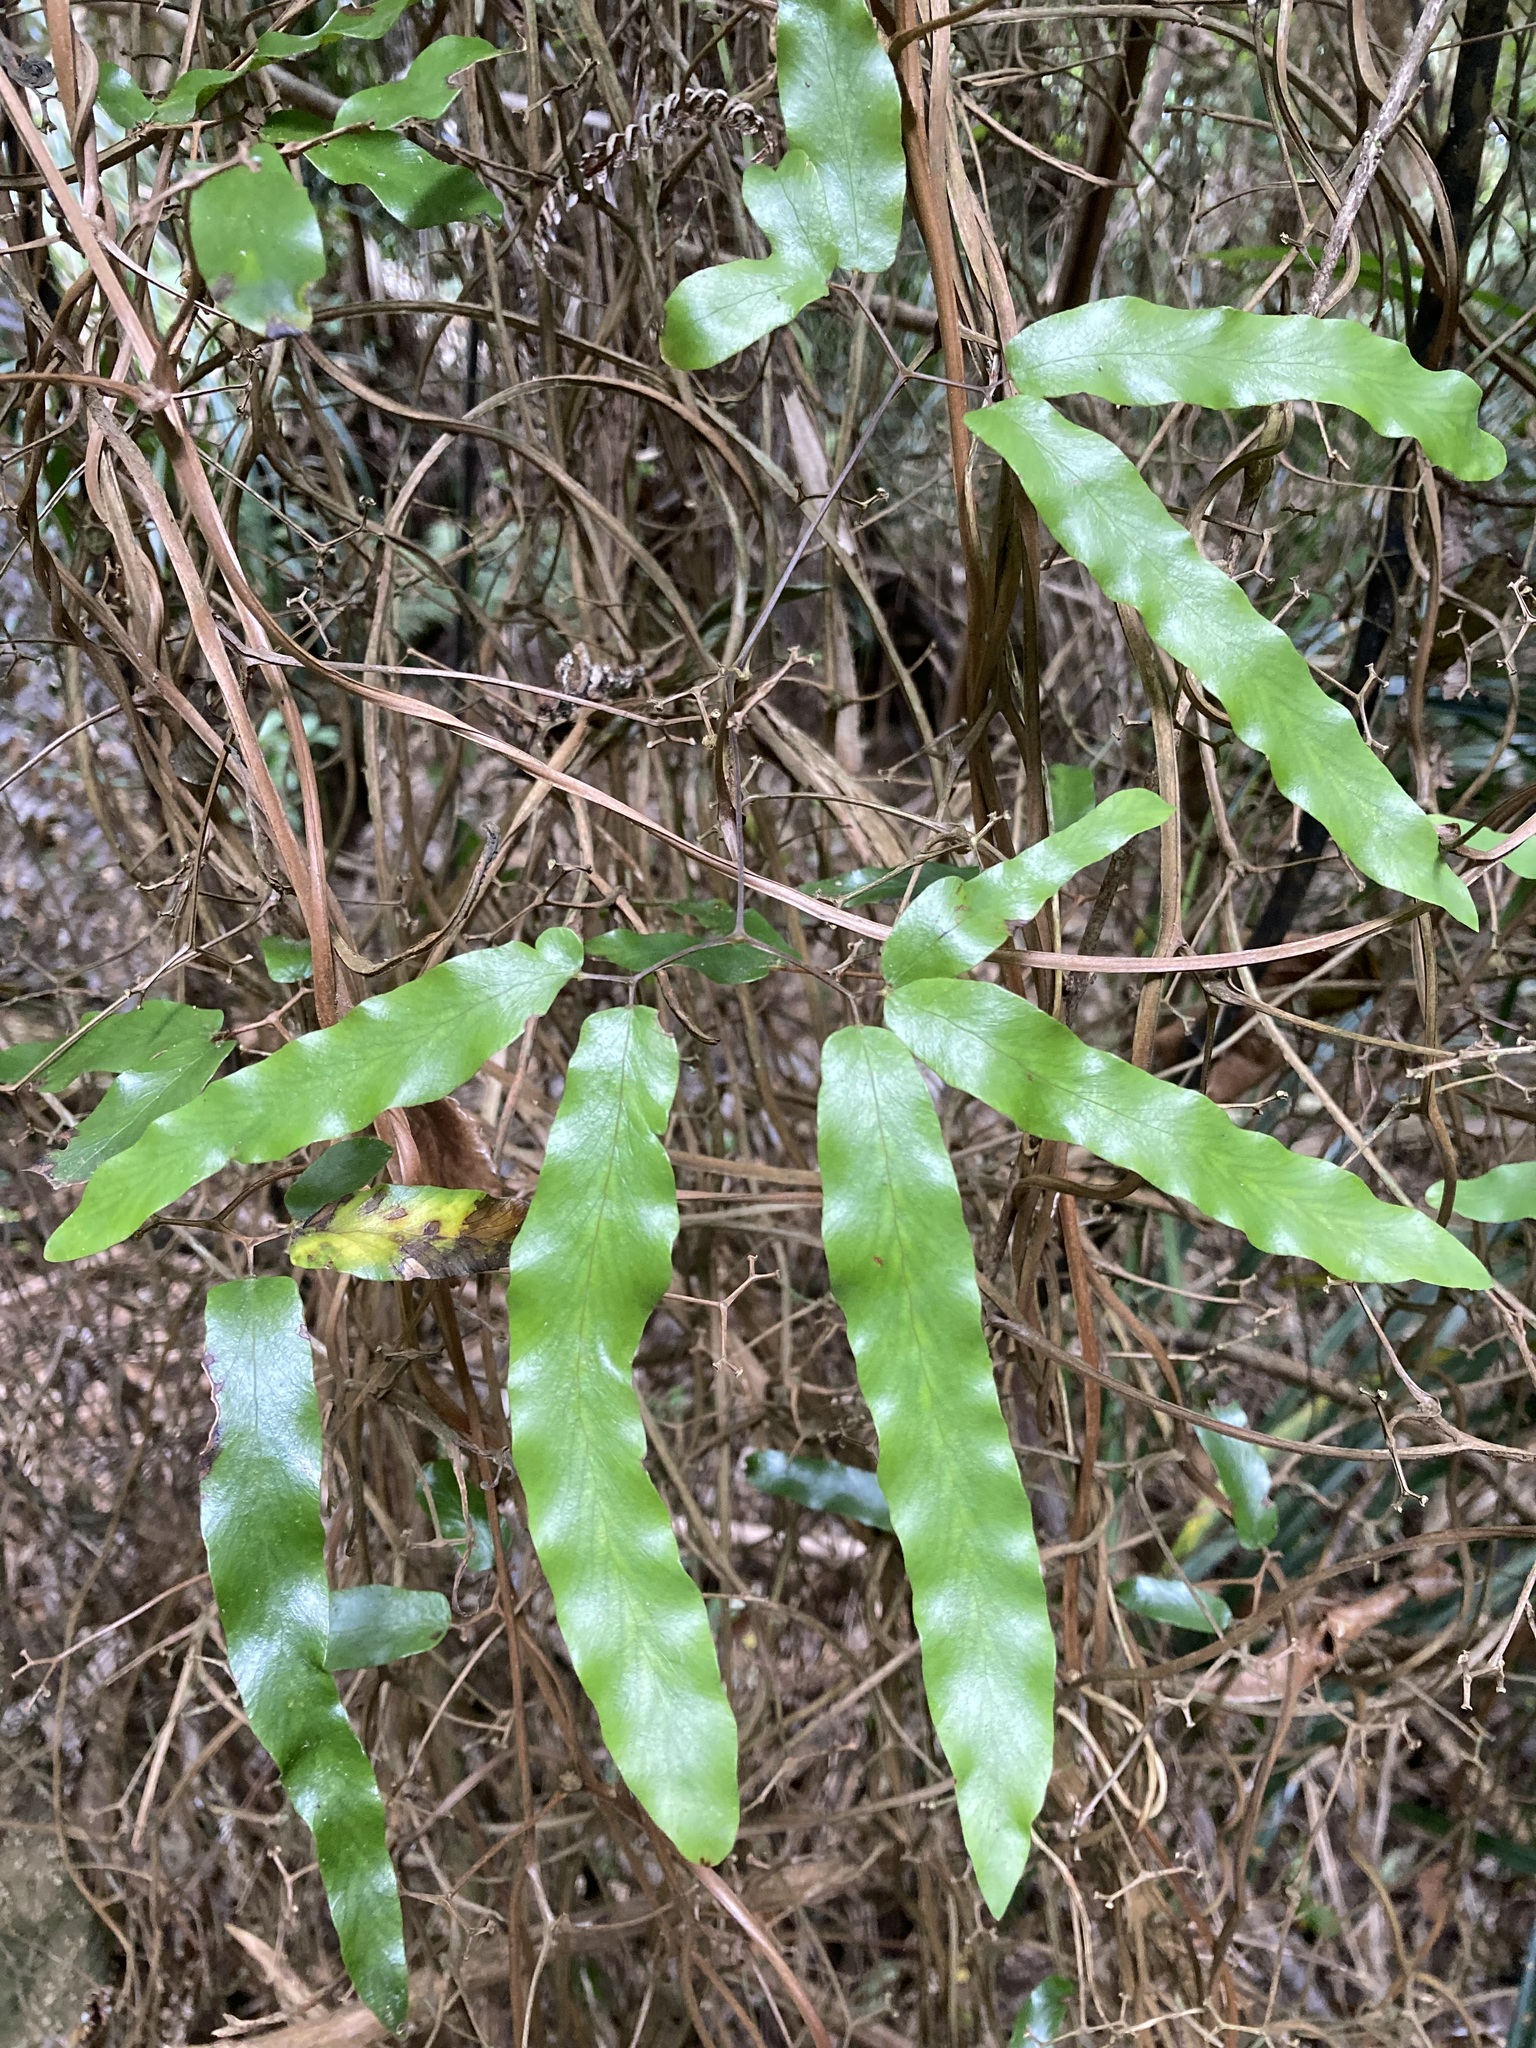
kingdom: Plantae
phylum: Tracheophyta
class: Polypodiopsida
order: Schizaeales
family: Lygodiaceae
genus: Lygodium
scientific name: Lygodium articulatum
